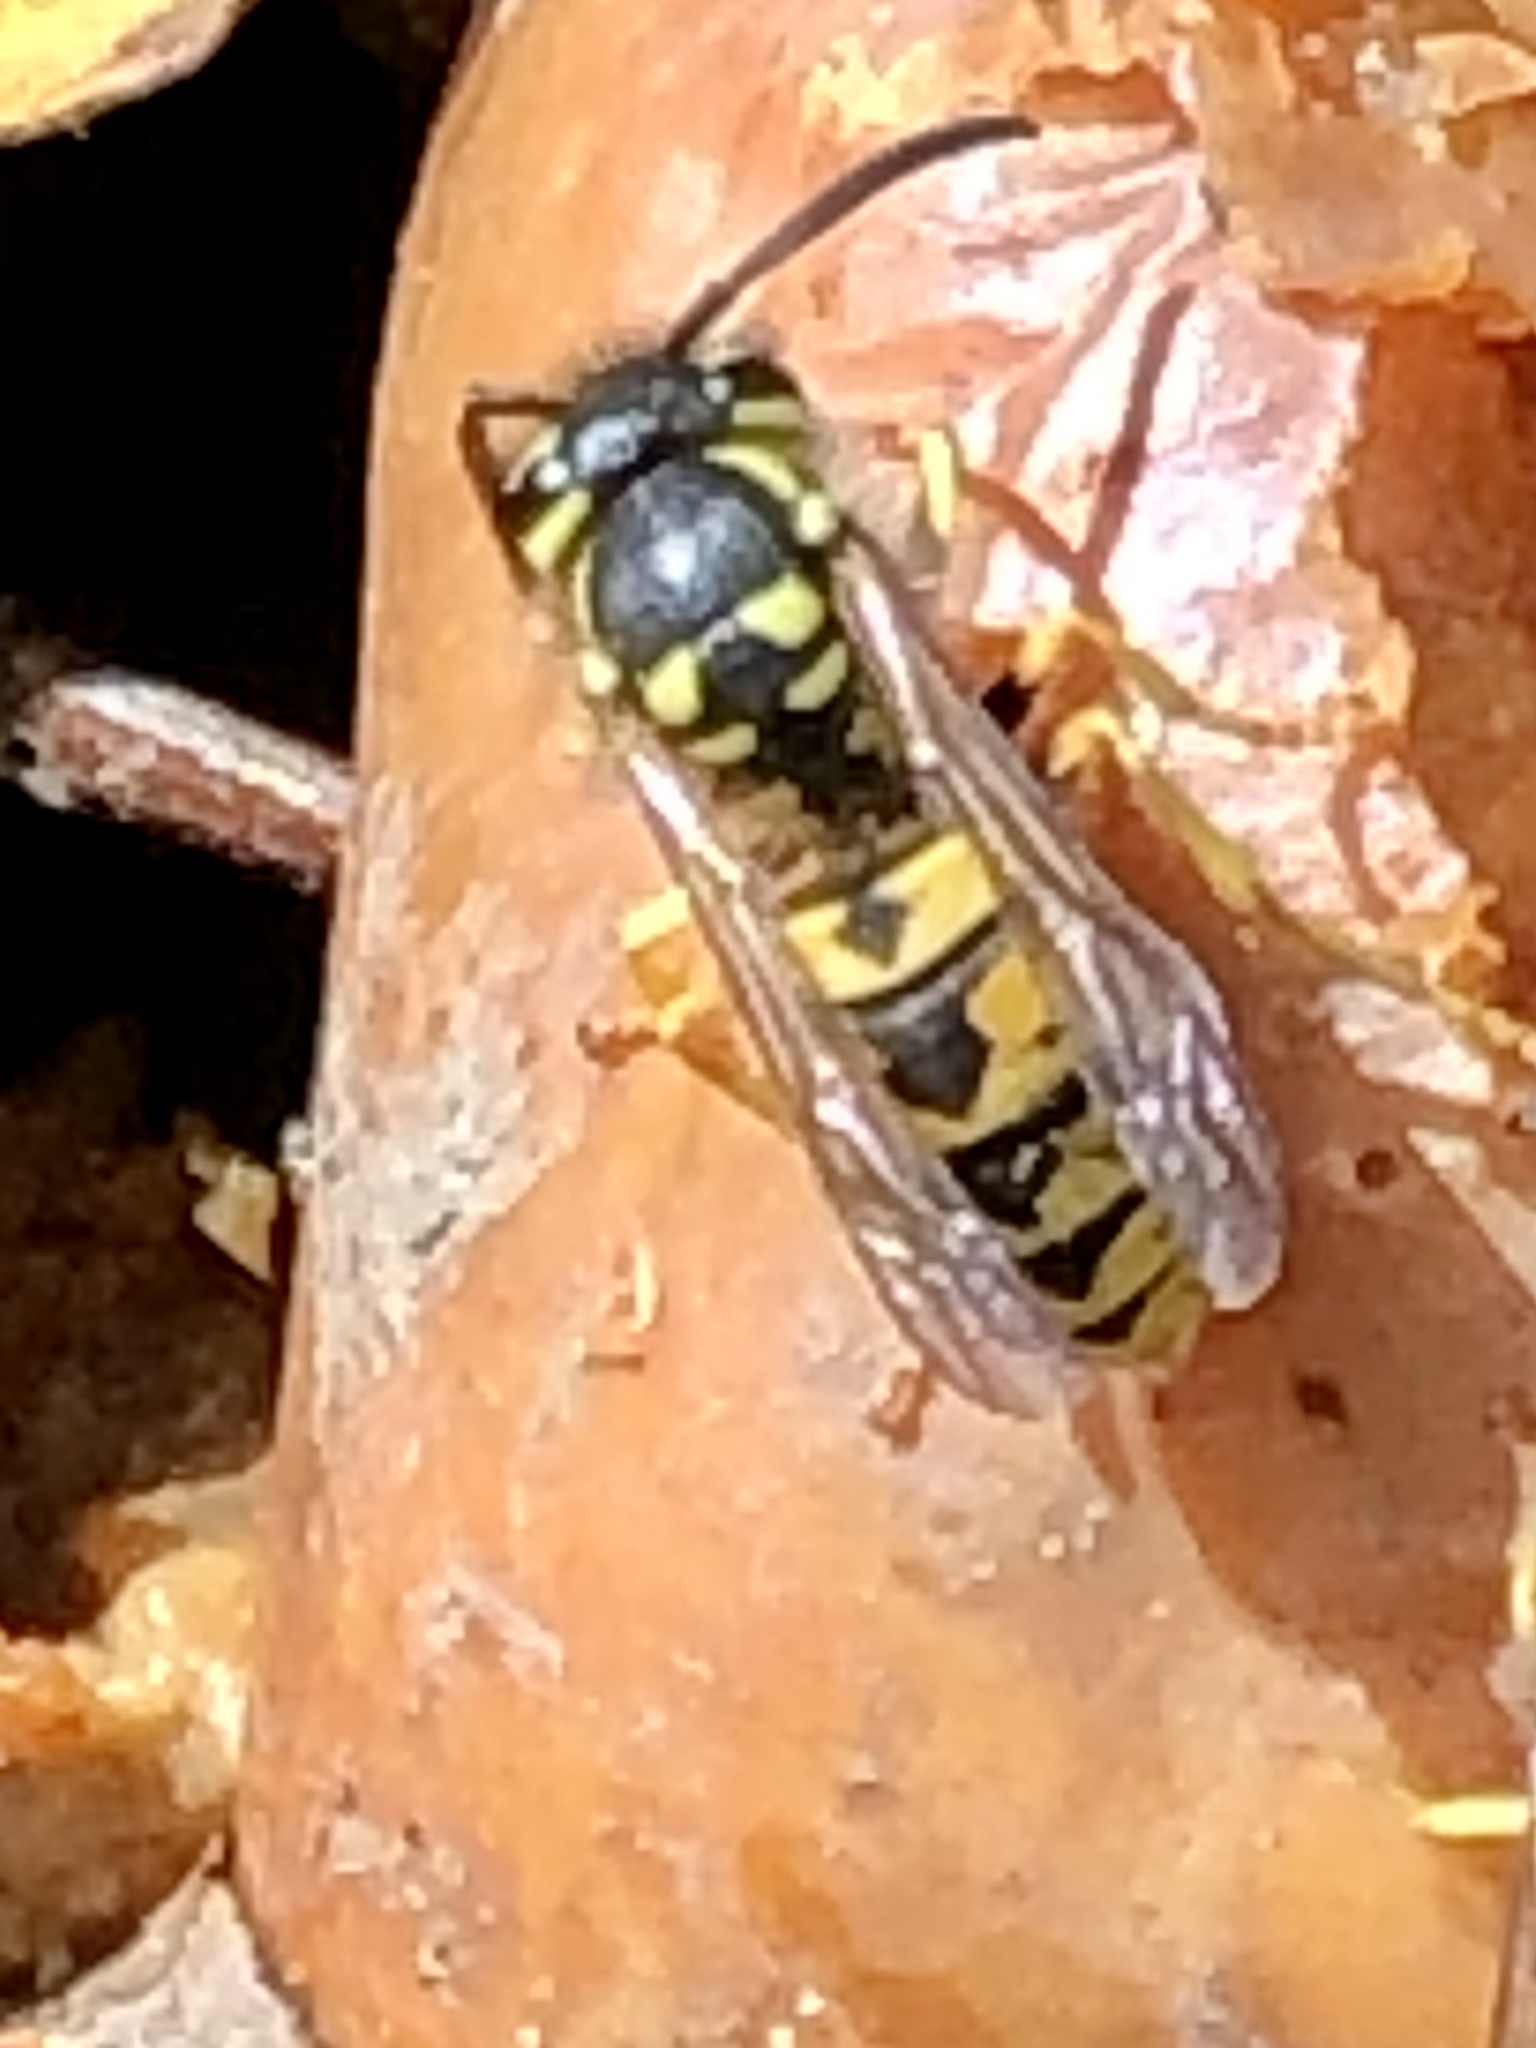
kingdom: Animalia
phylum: Arthropoda
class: Insecta
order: Hymenoptera
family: Vespidae
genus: Vespula
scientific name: Vespula germanica
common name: German wasp
